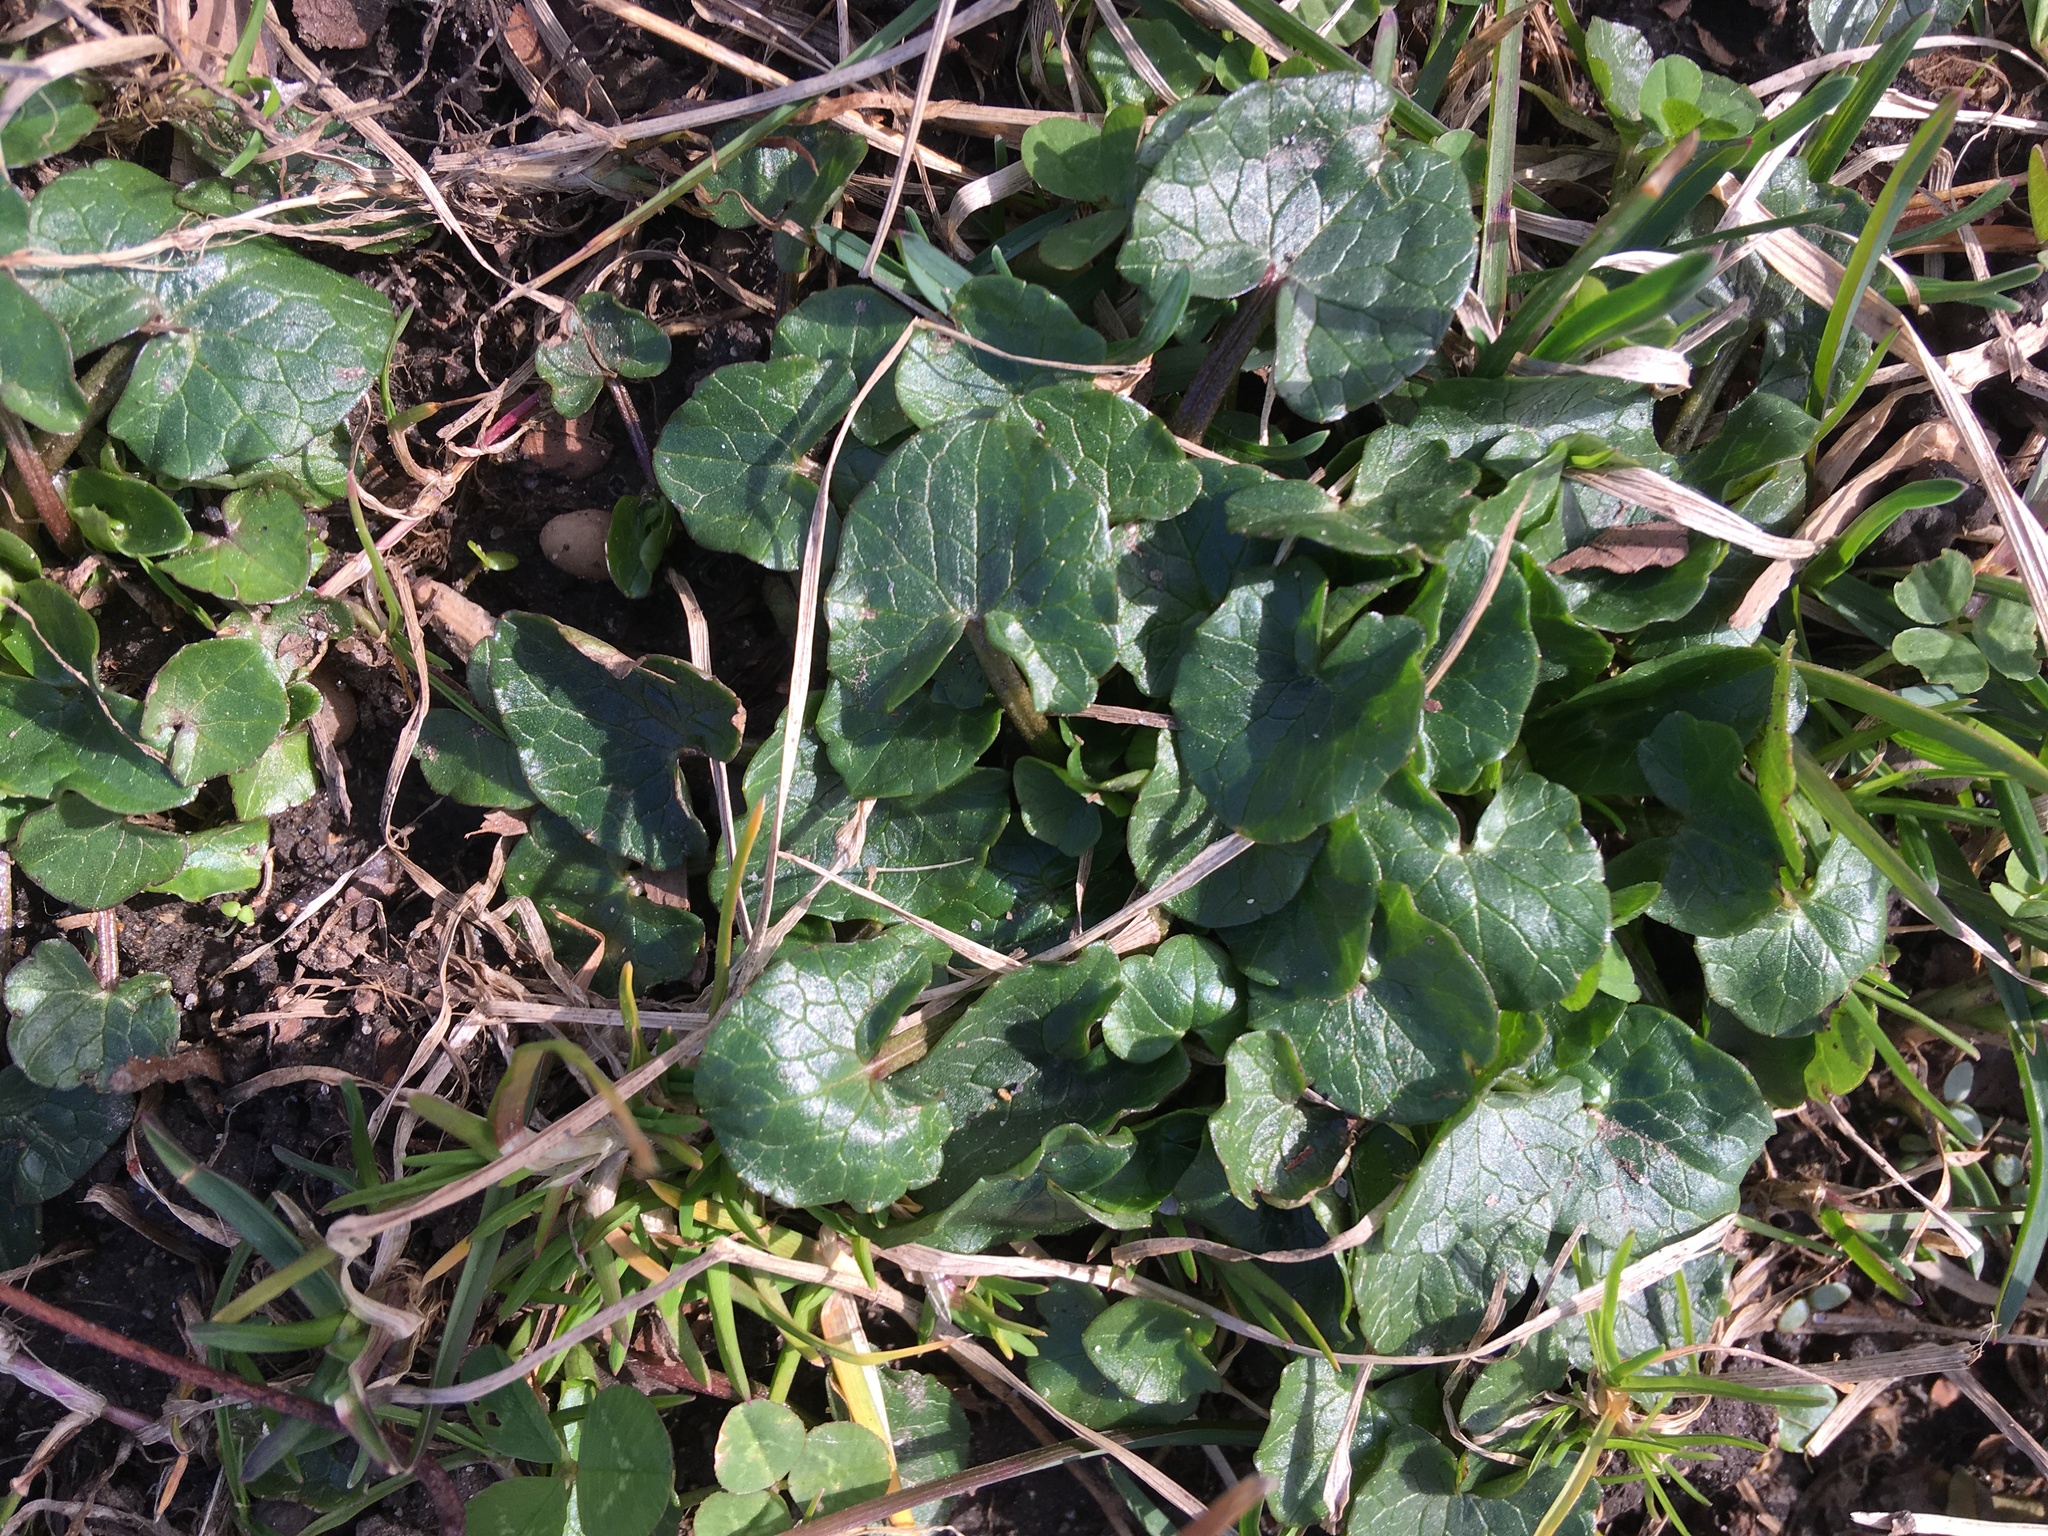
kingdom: Plantae
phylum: Tracheophyta
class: Magnoliopsida
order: Ranunculales
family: Ranunculaceae
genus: Ficaria
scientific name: Ficaria verna
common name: Lesser celandine
